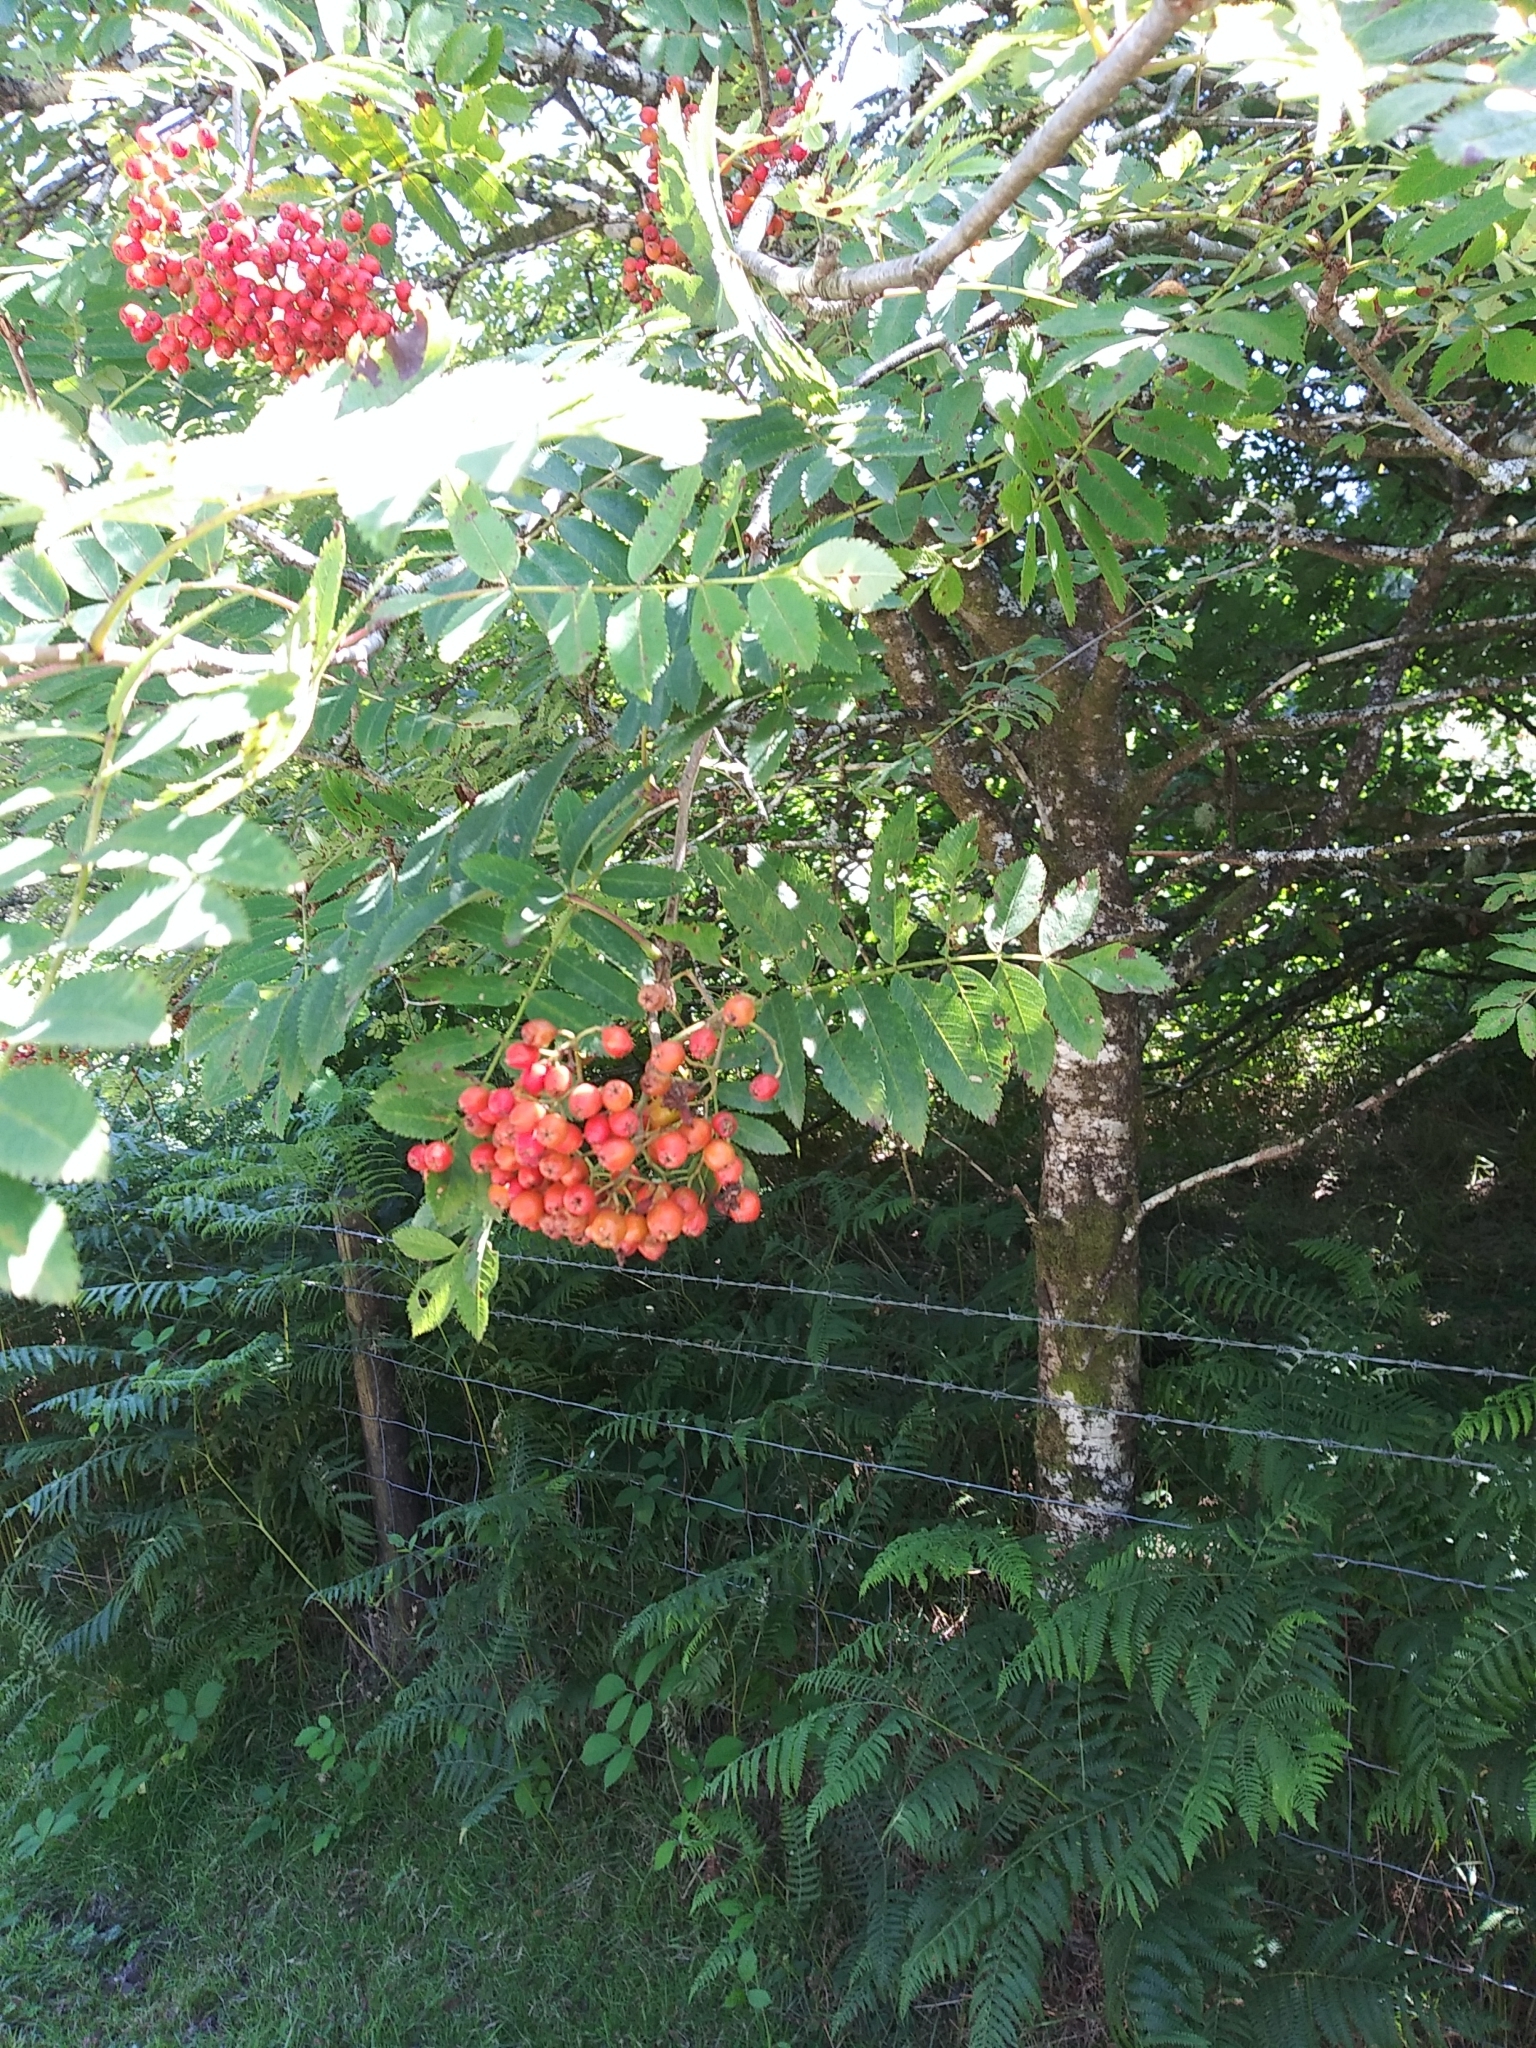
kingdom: Plantae
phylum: Tracheophyta
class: Magnoliopsida
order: Rosales
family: Rosaceae
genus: Sorbus
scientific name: Sorbus aucuparia
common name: Rowan
